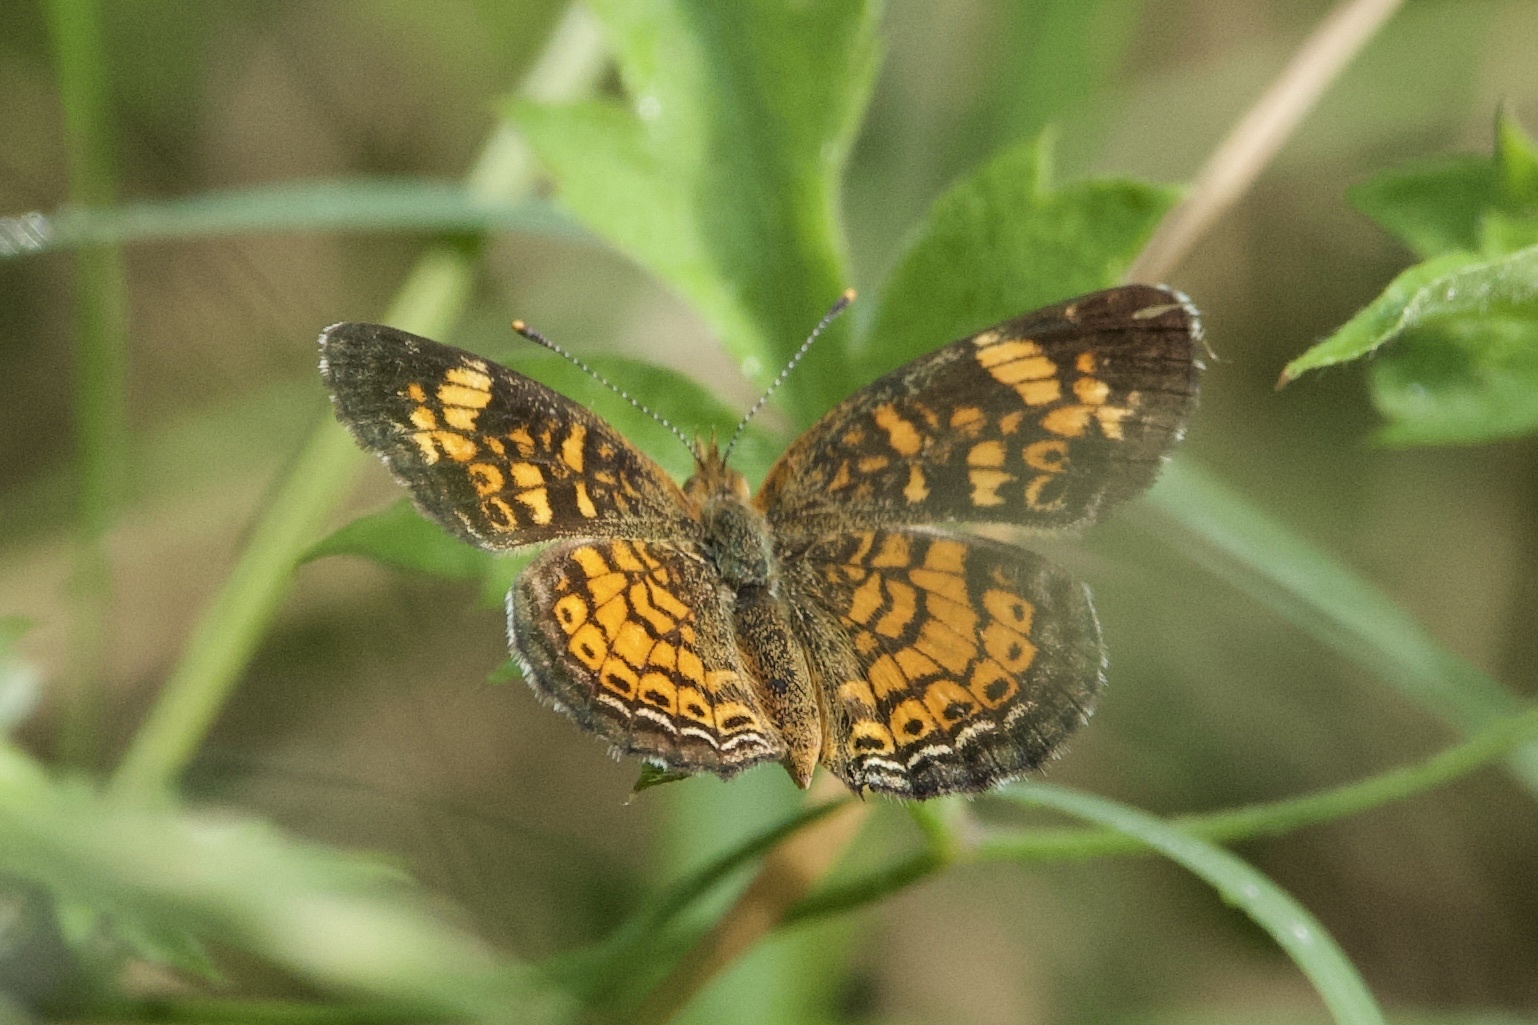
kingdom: Animalia
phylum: Arthropoda
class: Insecta
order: Lepidoptera
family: Nymphalidae
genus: Phyciodes
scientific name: Phyciodes tharos
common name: Pearl crescent
